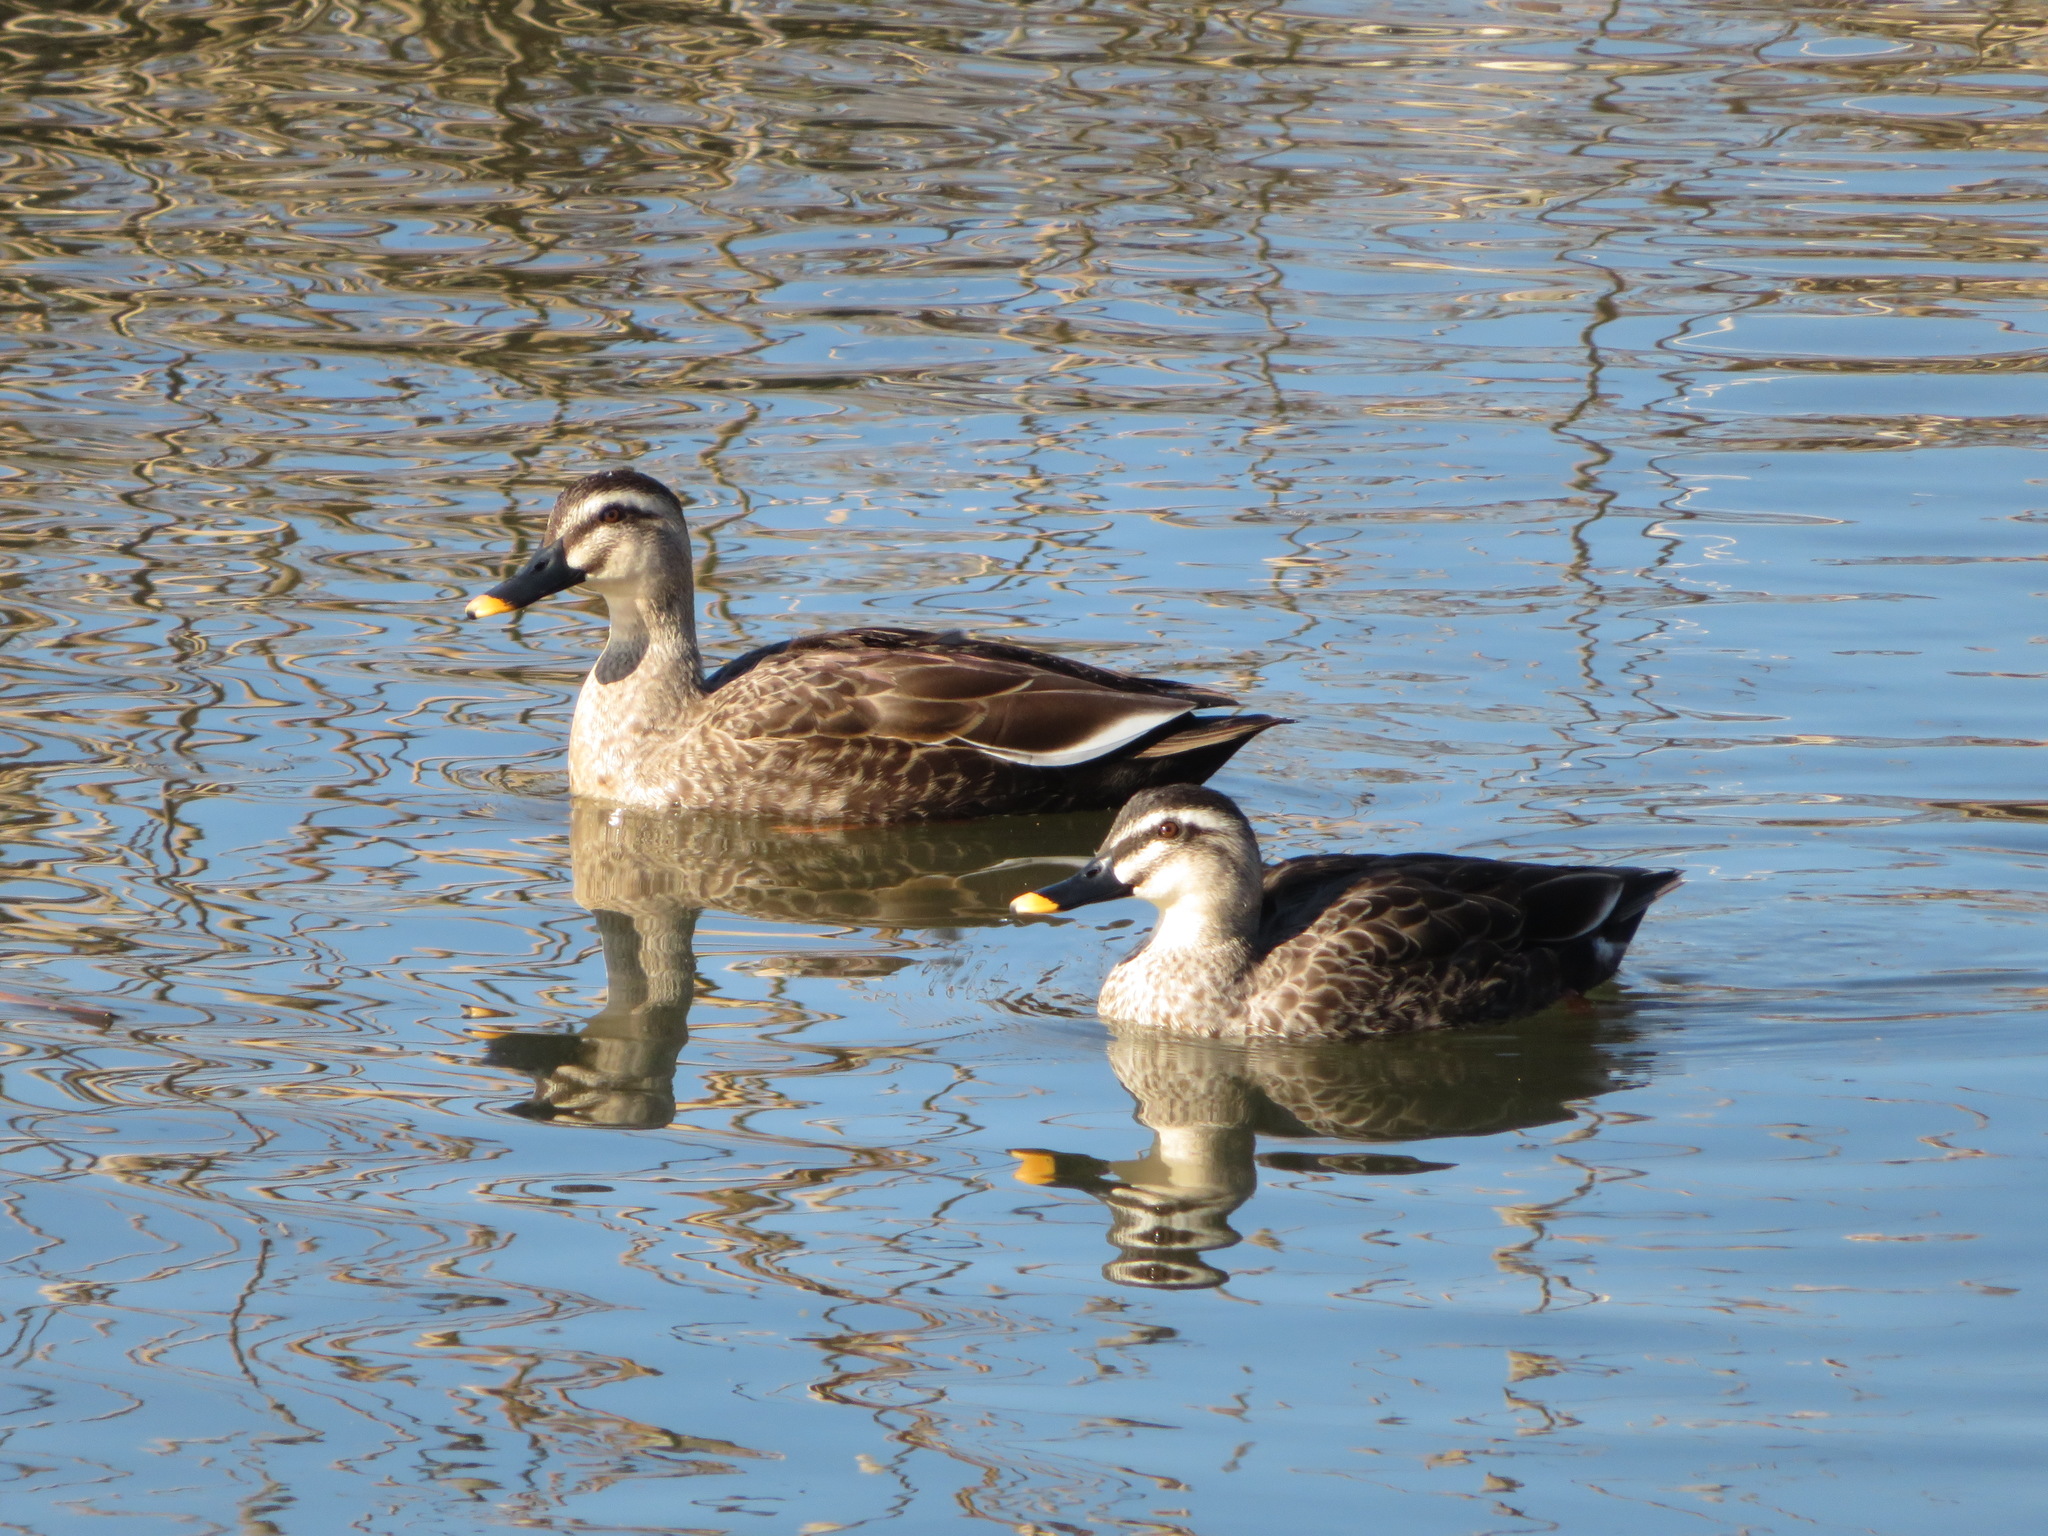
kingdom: Animalia
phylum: Chordata
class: Aves
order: Anseriformes
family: Anatidae
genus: Anas
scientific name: Anas zonorhyncha
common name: Eastern spot-billed duck
